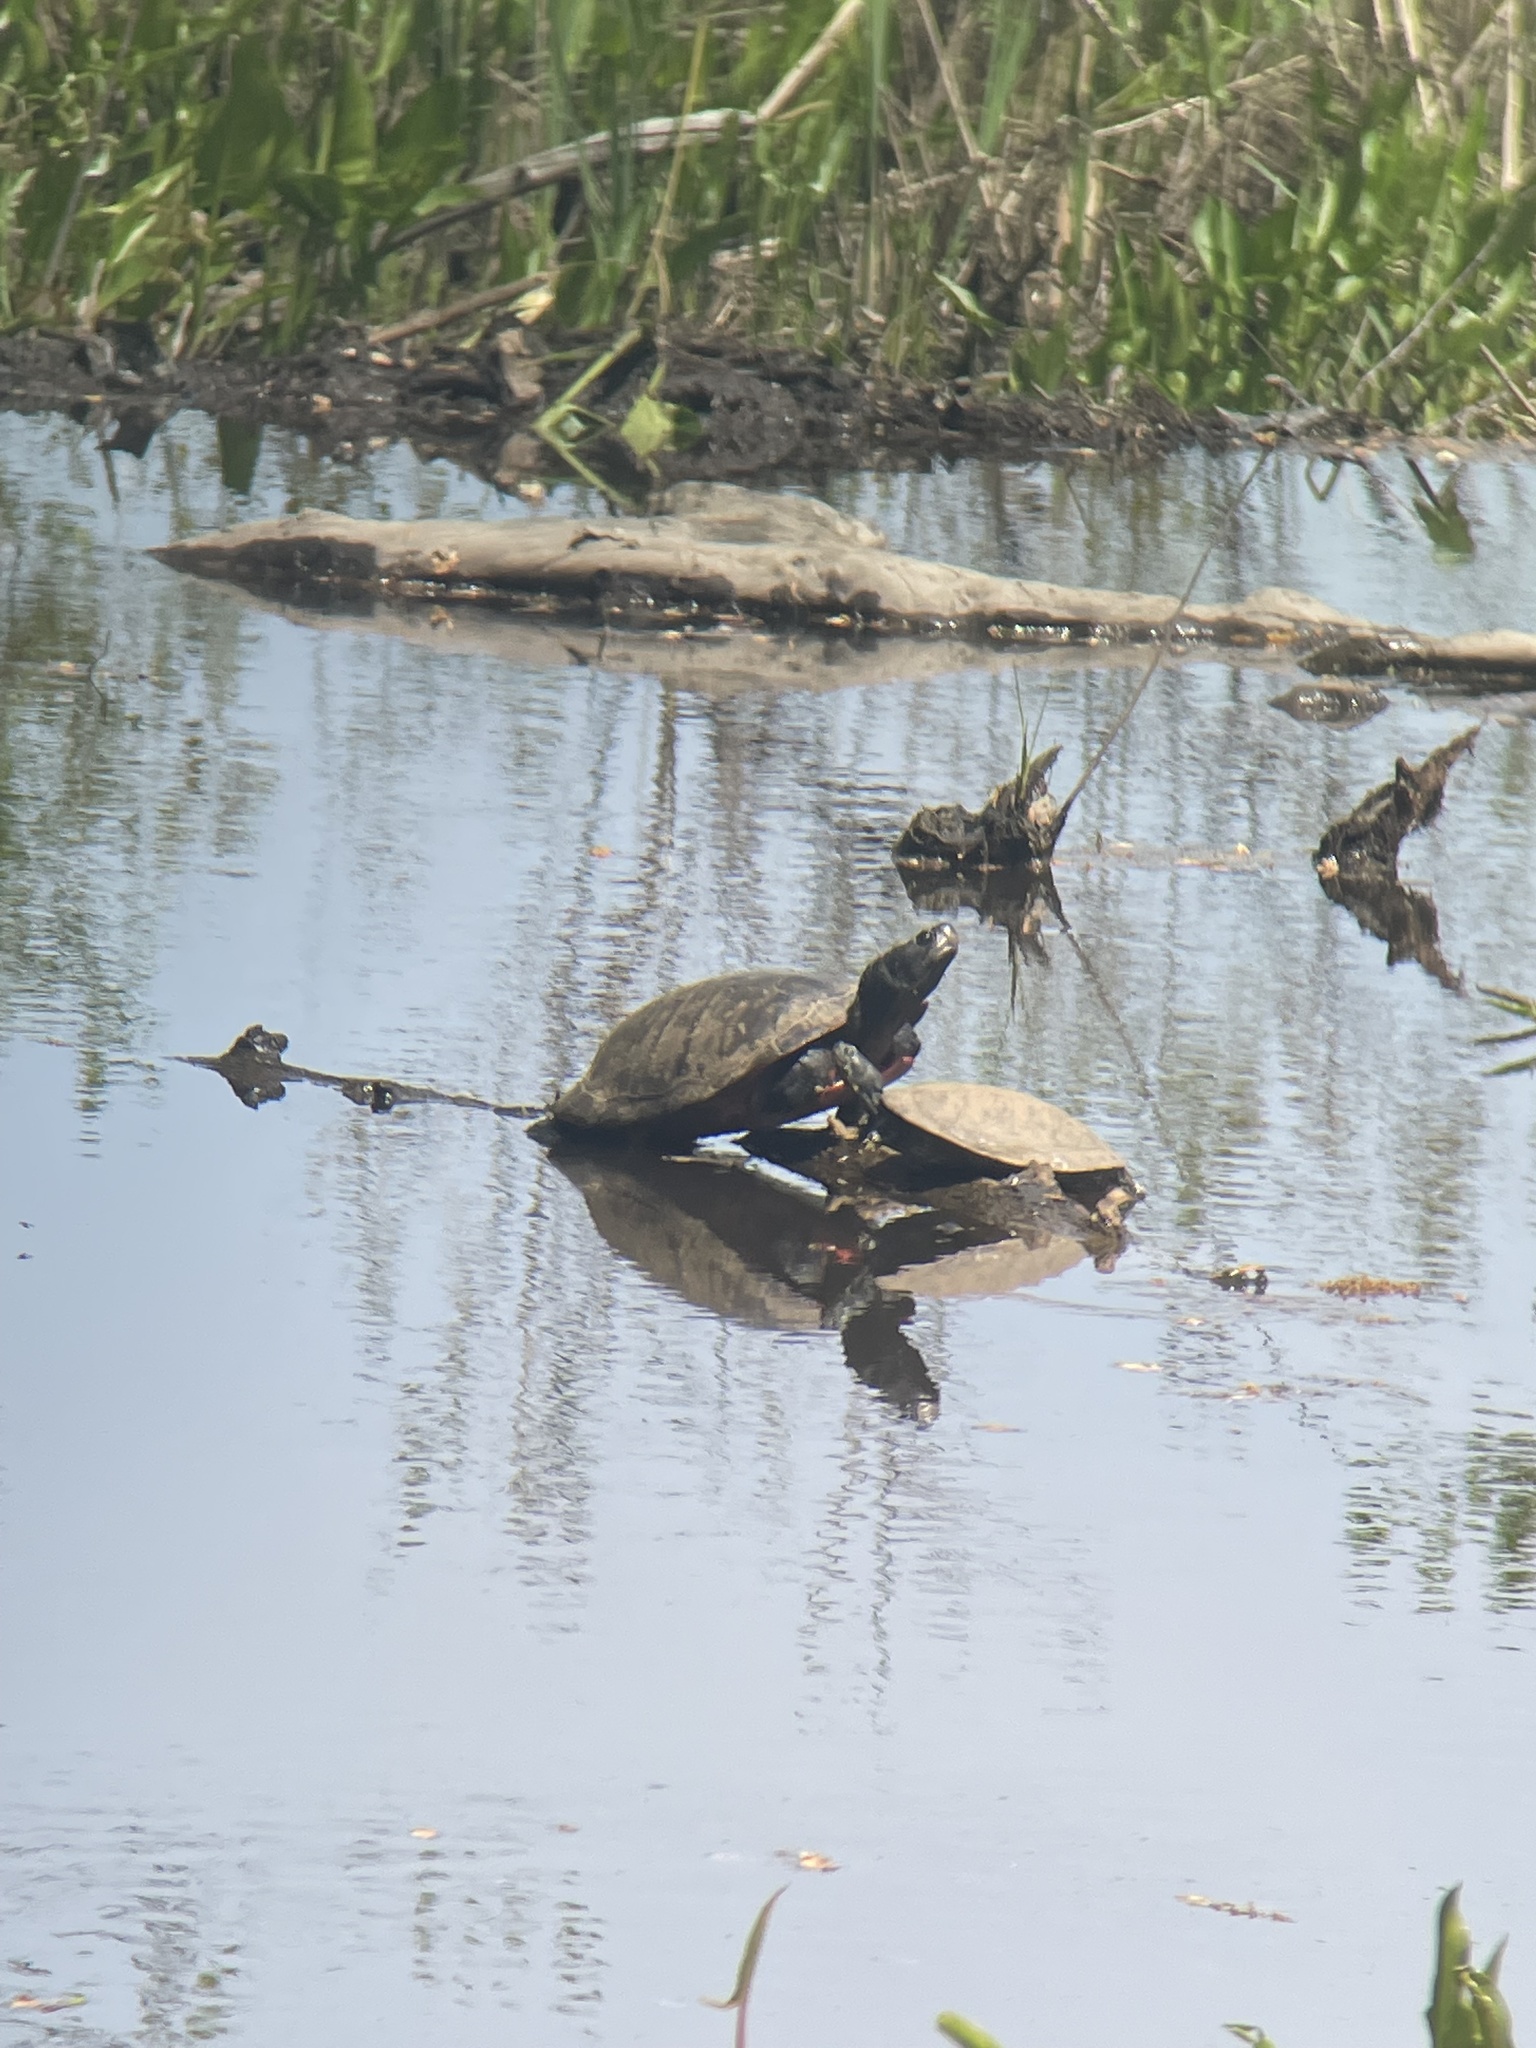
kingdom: Animalia
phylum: Chordata
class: Testudines
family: Emydidae
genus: Pseudemys
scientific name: Pseudemys rubriventris
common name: American red-bellied turtle
